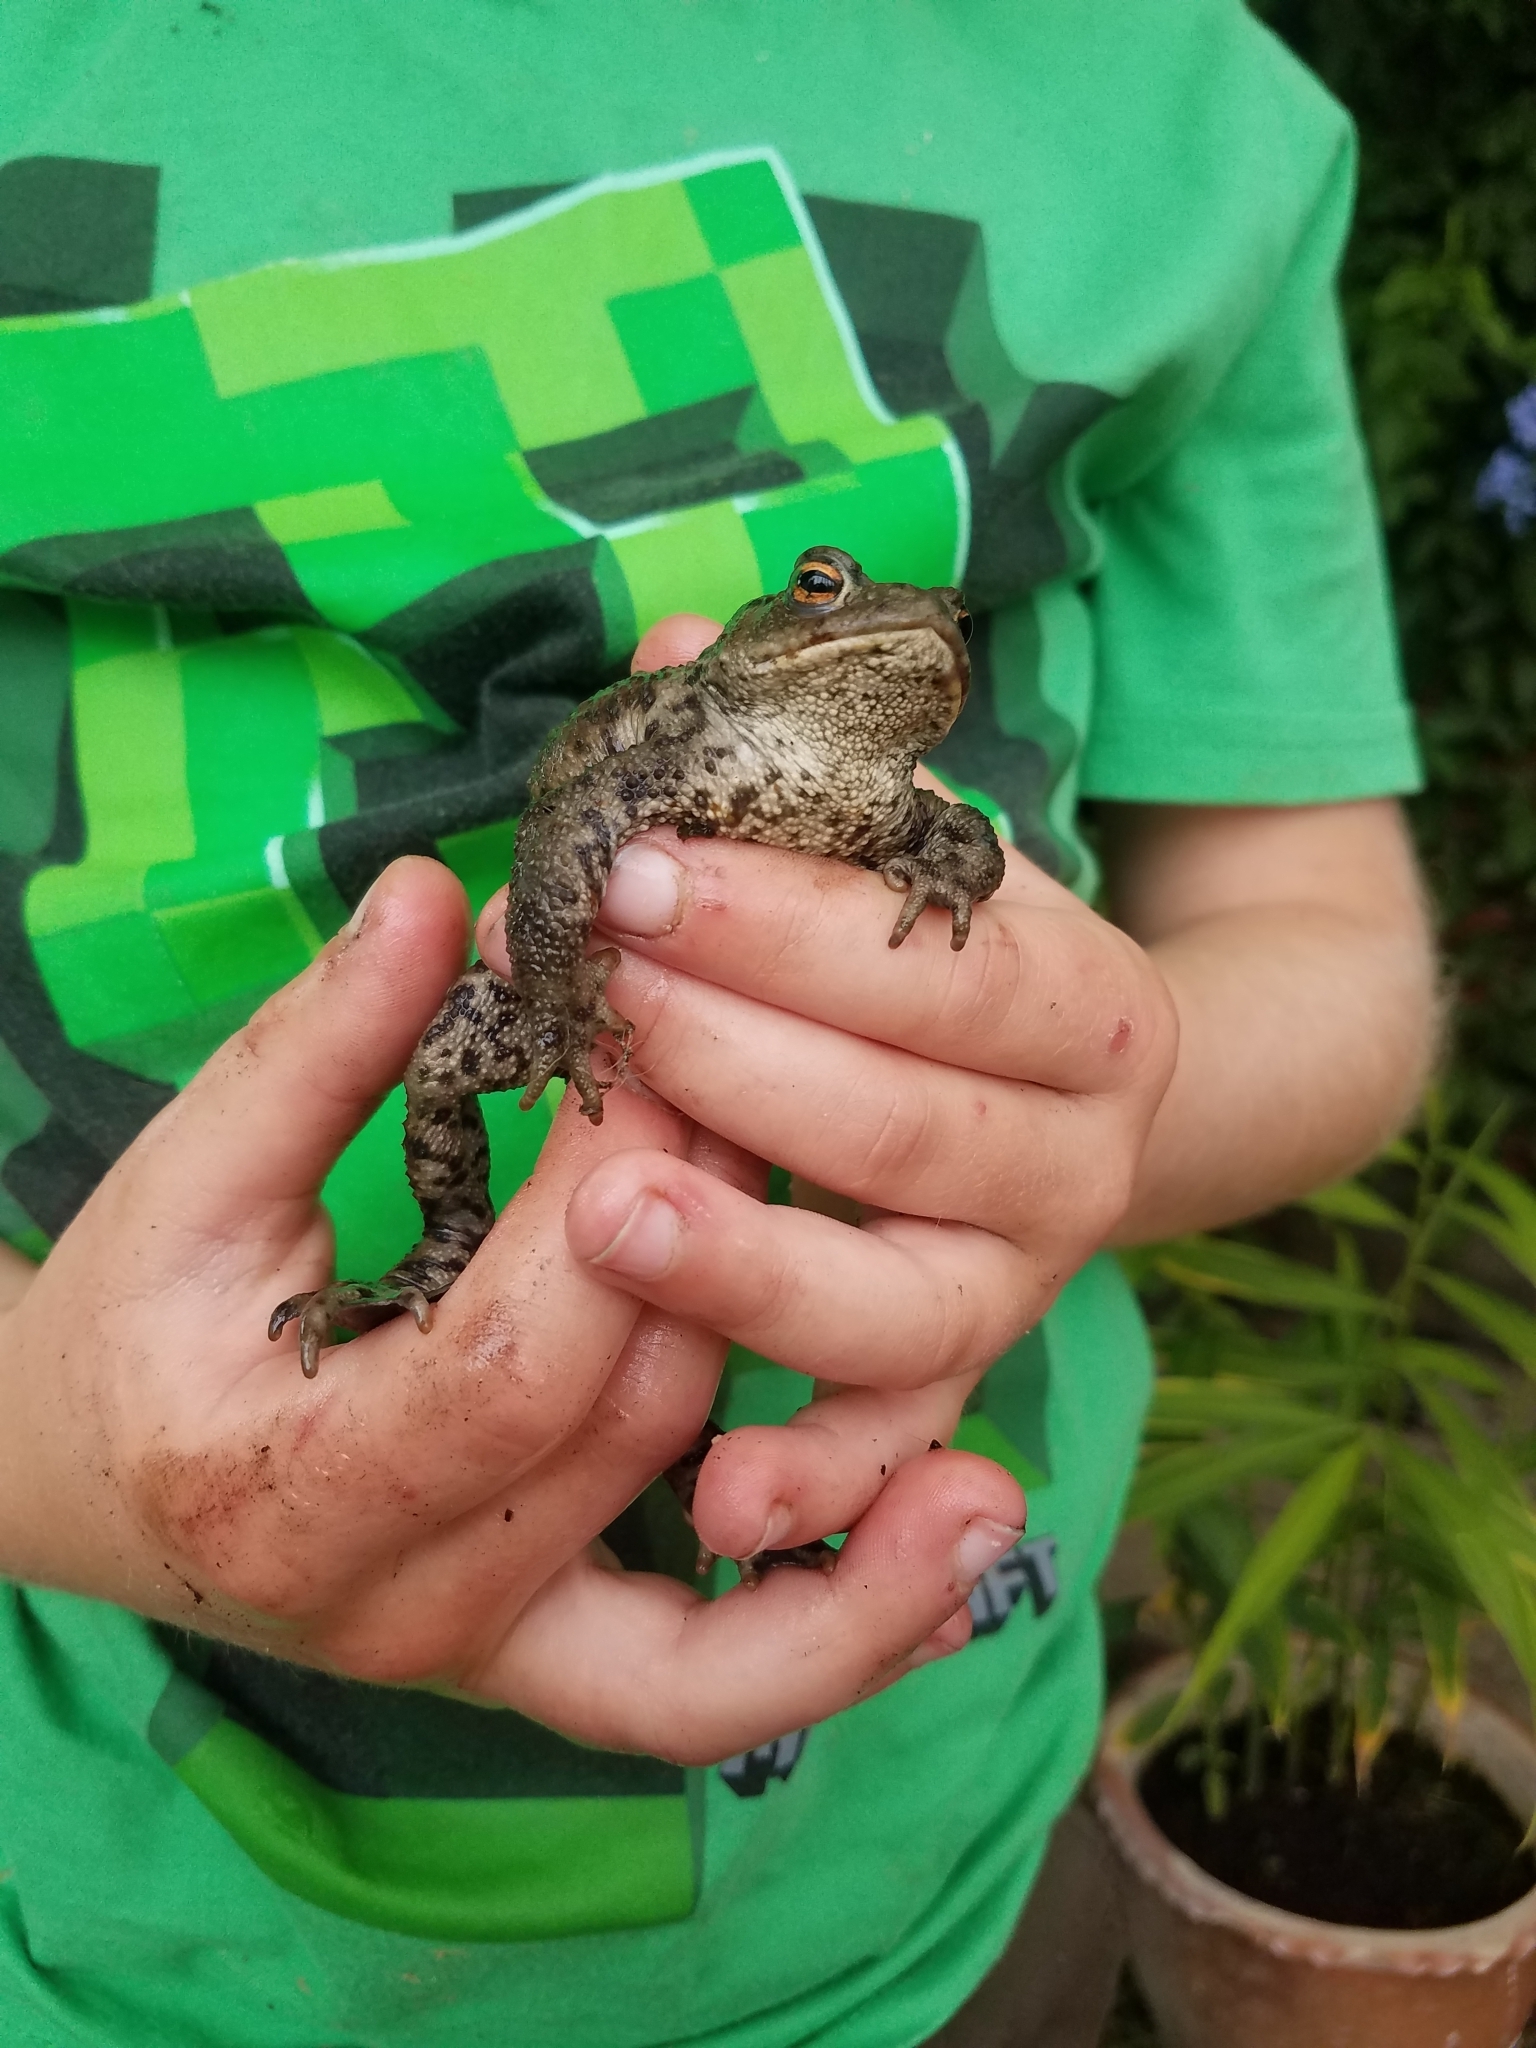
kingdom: Animalia
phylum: Chordata
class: Amphibia
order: Anura
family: Bufonidae
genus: Bufo
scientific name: Bufo bufo
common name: Common toad
